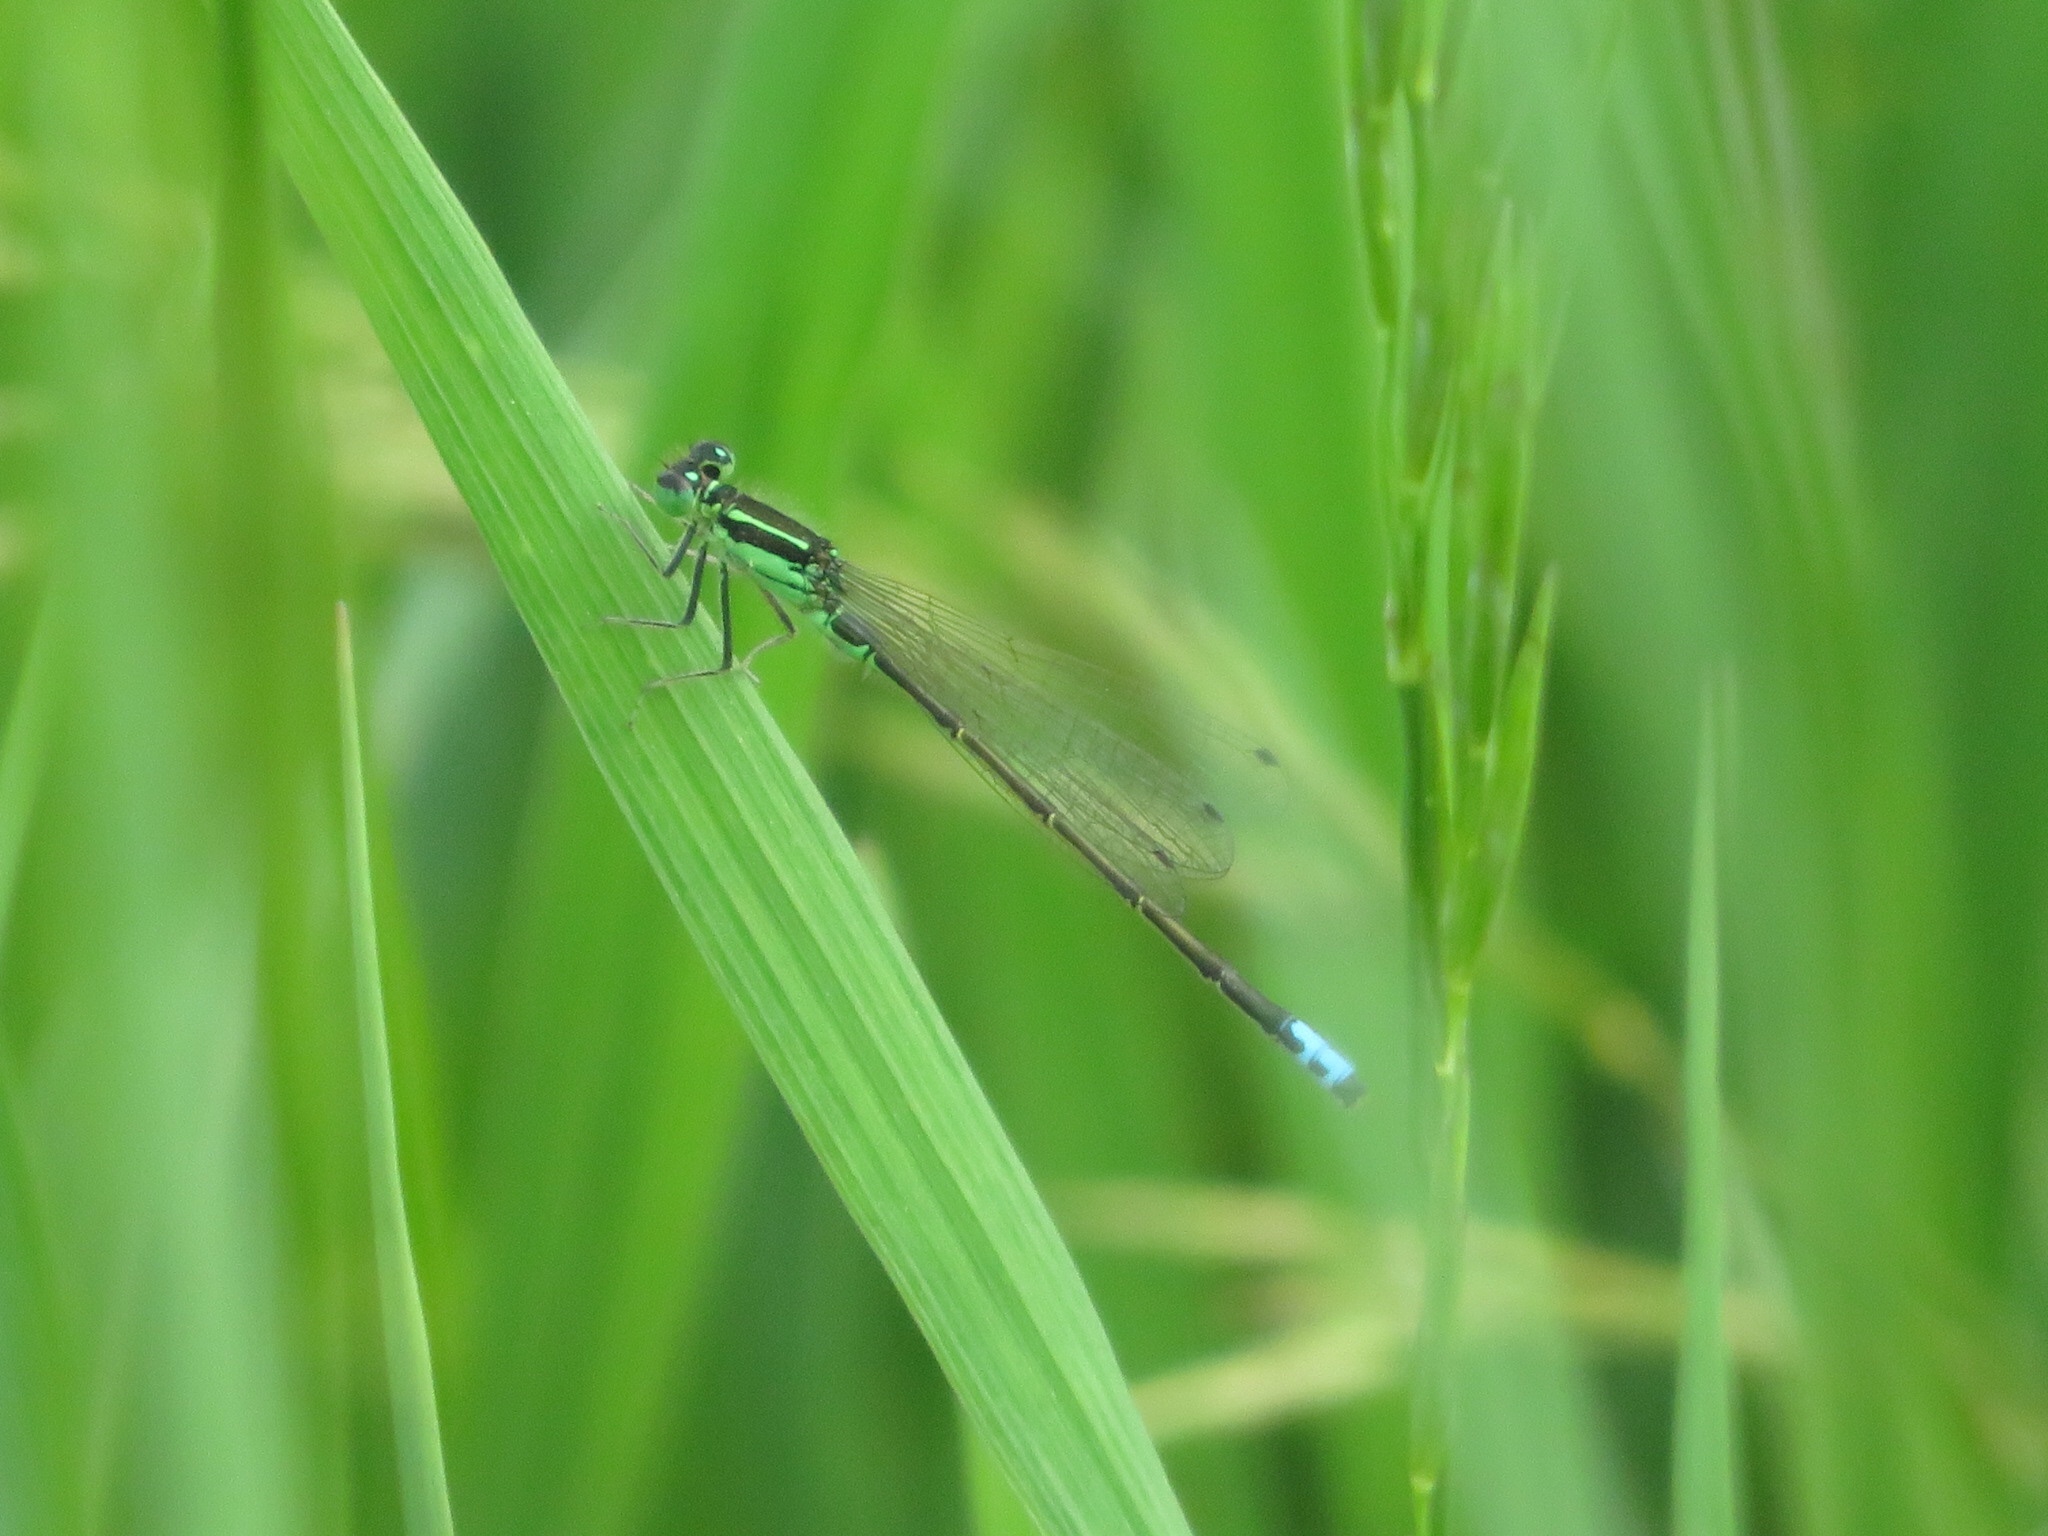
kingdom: Animalia
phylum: Arthropoda
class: Insecta
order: Odonata
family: Coenagrionidae
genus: Ischnura
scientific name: Ischnura verticalis
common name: Eastern forktail
